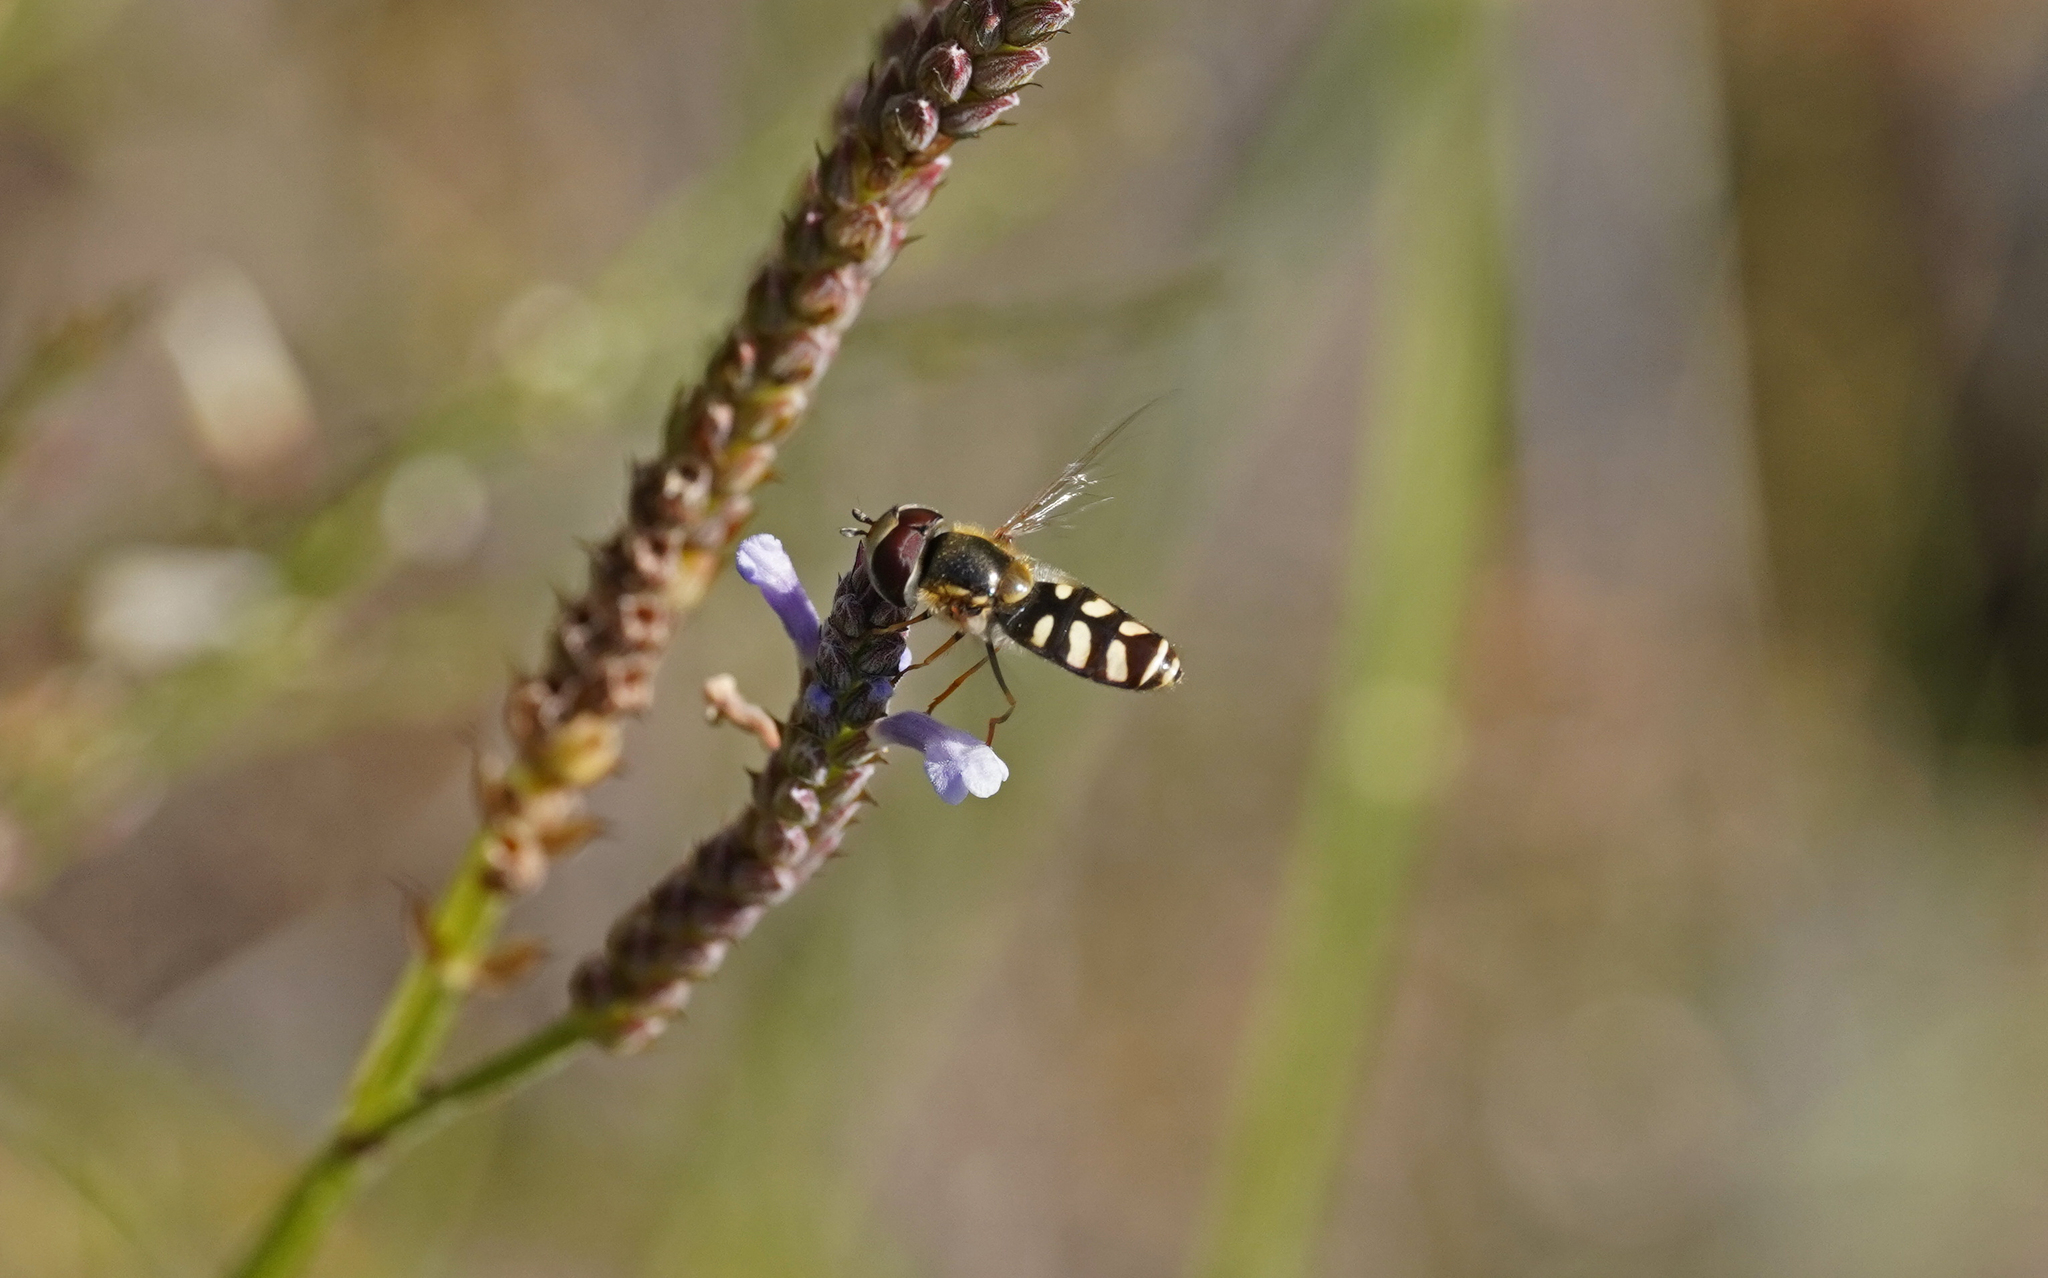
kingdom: Animalia
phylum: Arthropoda
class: Insecta
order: Diptera
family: Syrphidae
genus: Scaeva
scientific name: Scaeva albomaculata
